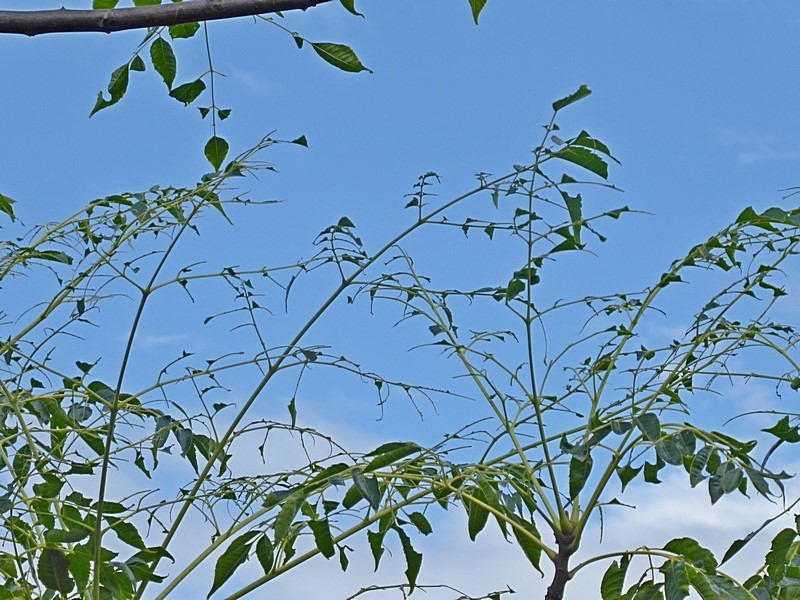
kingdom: Animalia
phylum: Arthropoda
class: Insecta
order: Lepidoptera
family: Erebidae
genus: Leptocneria
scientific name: Leptocneria reducta
